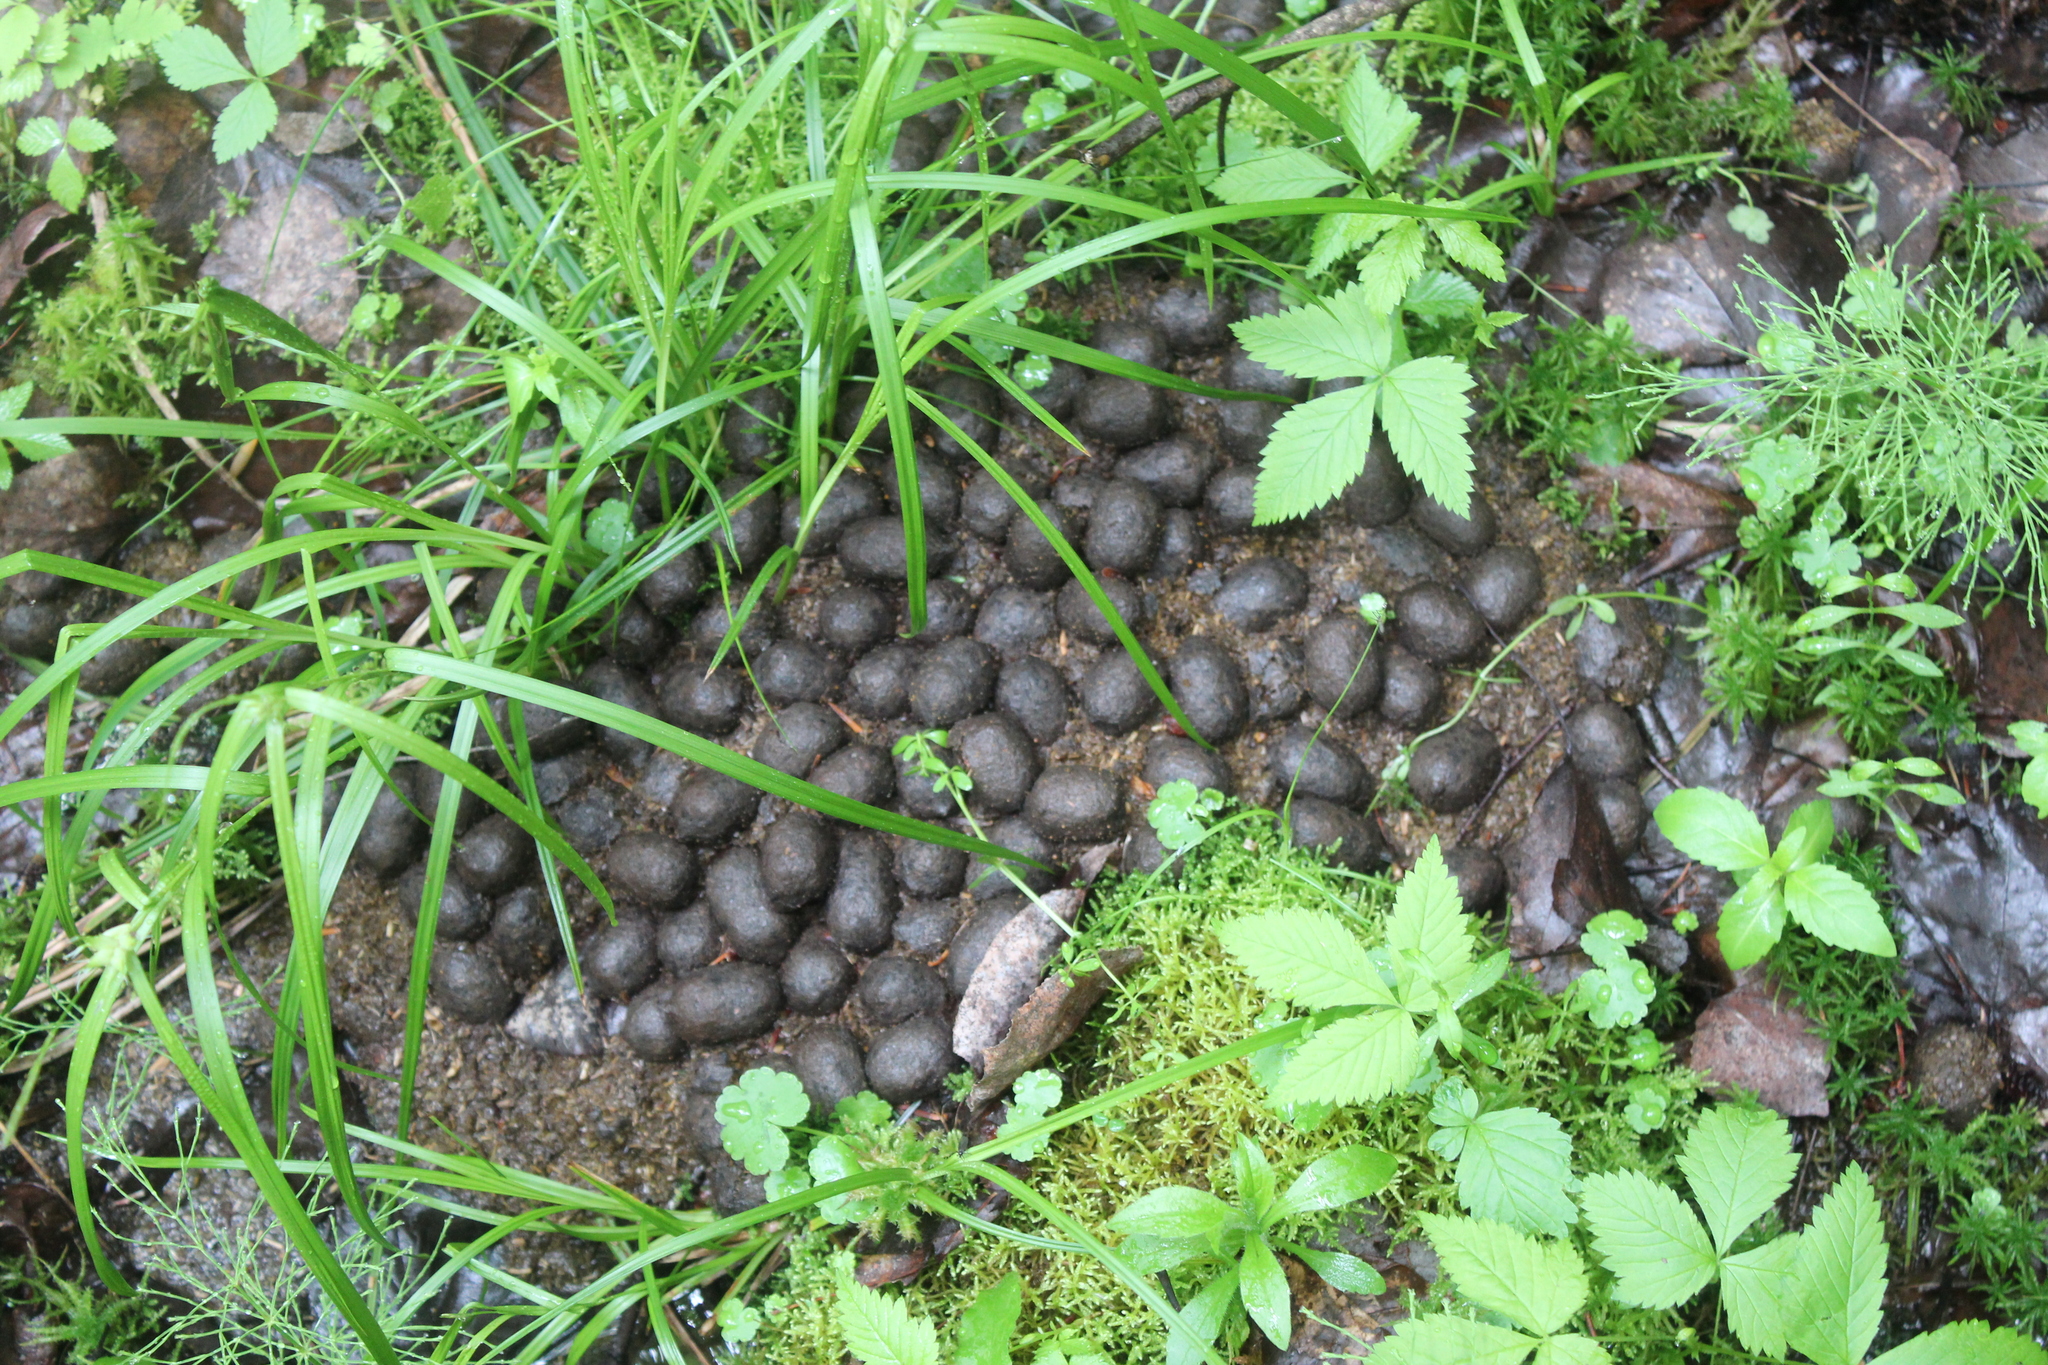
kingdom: Animalia
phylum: Chordata
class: Mammalia
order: Artiodactyla
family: Cervidae
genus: Alces
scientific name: Alces alces
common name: Moose
